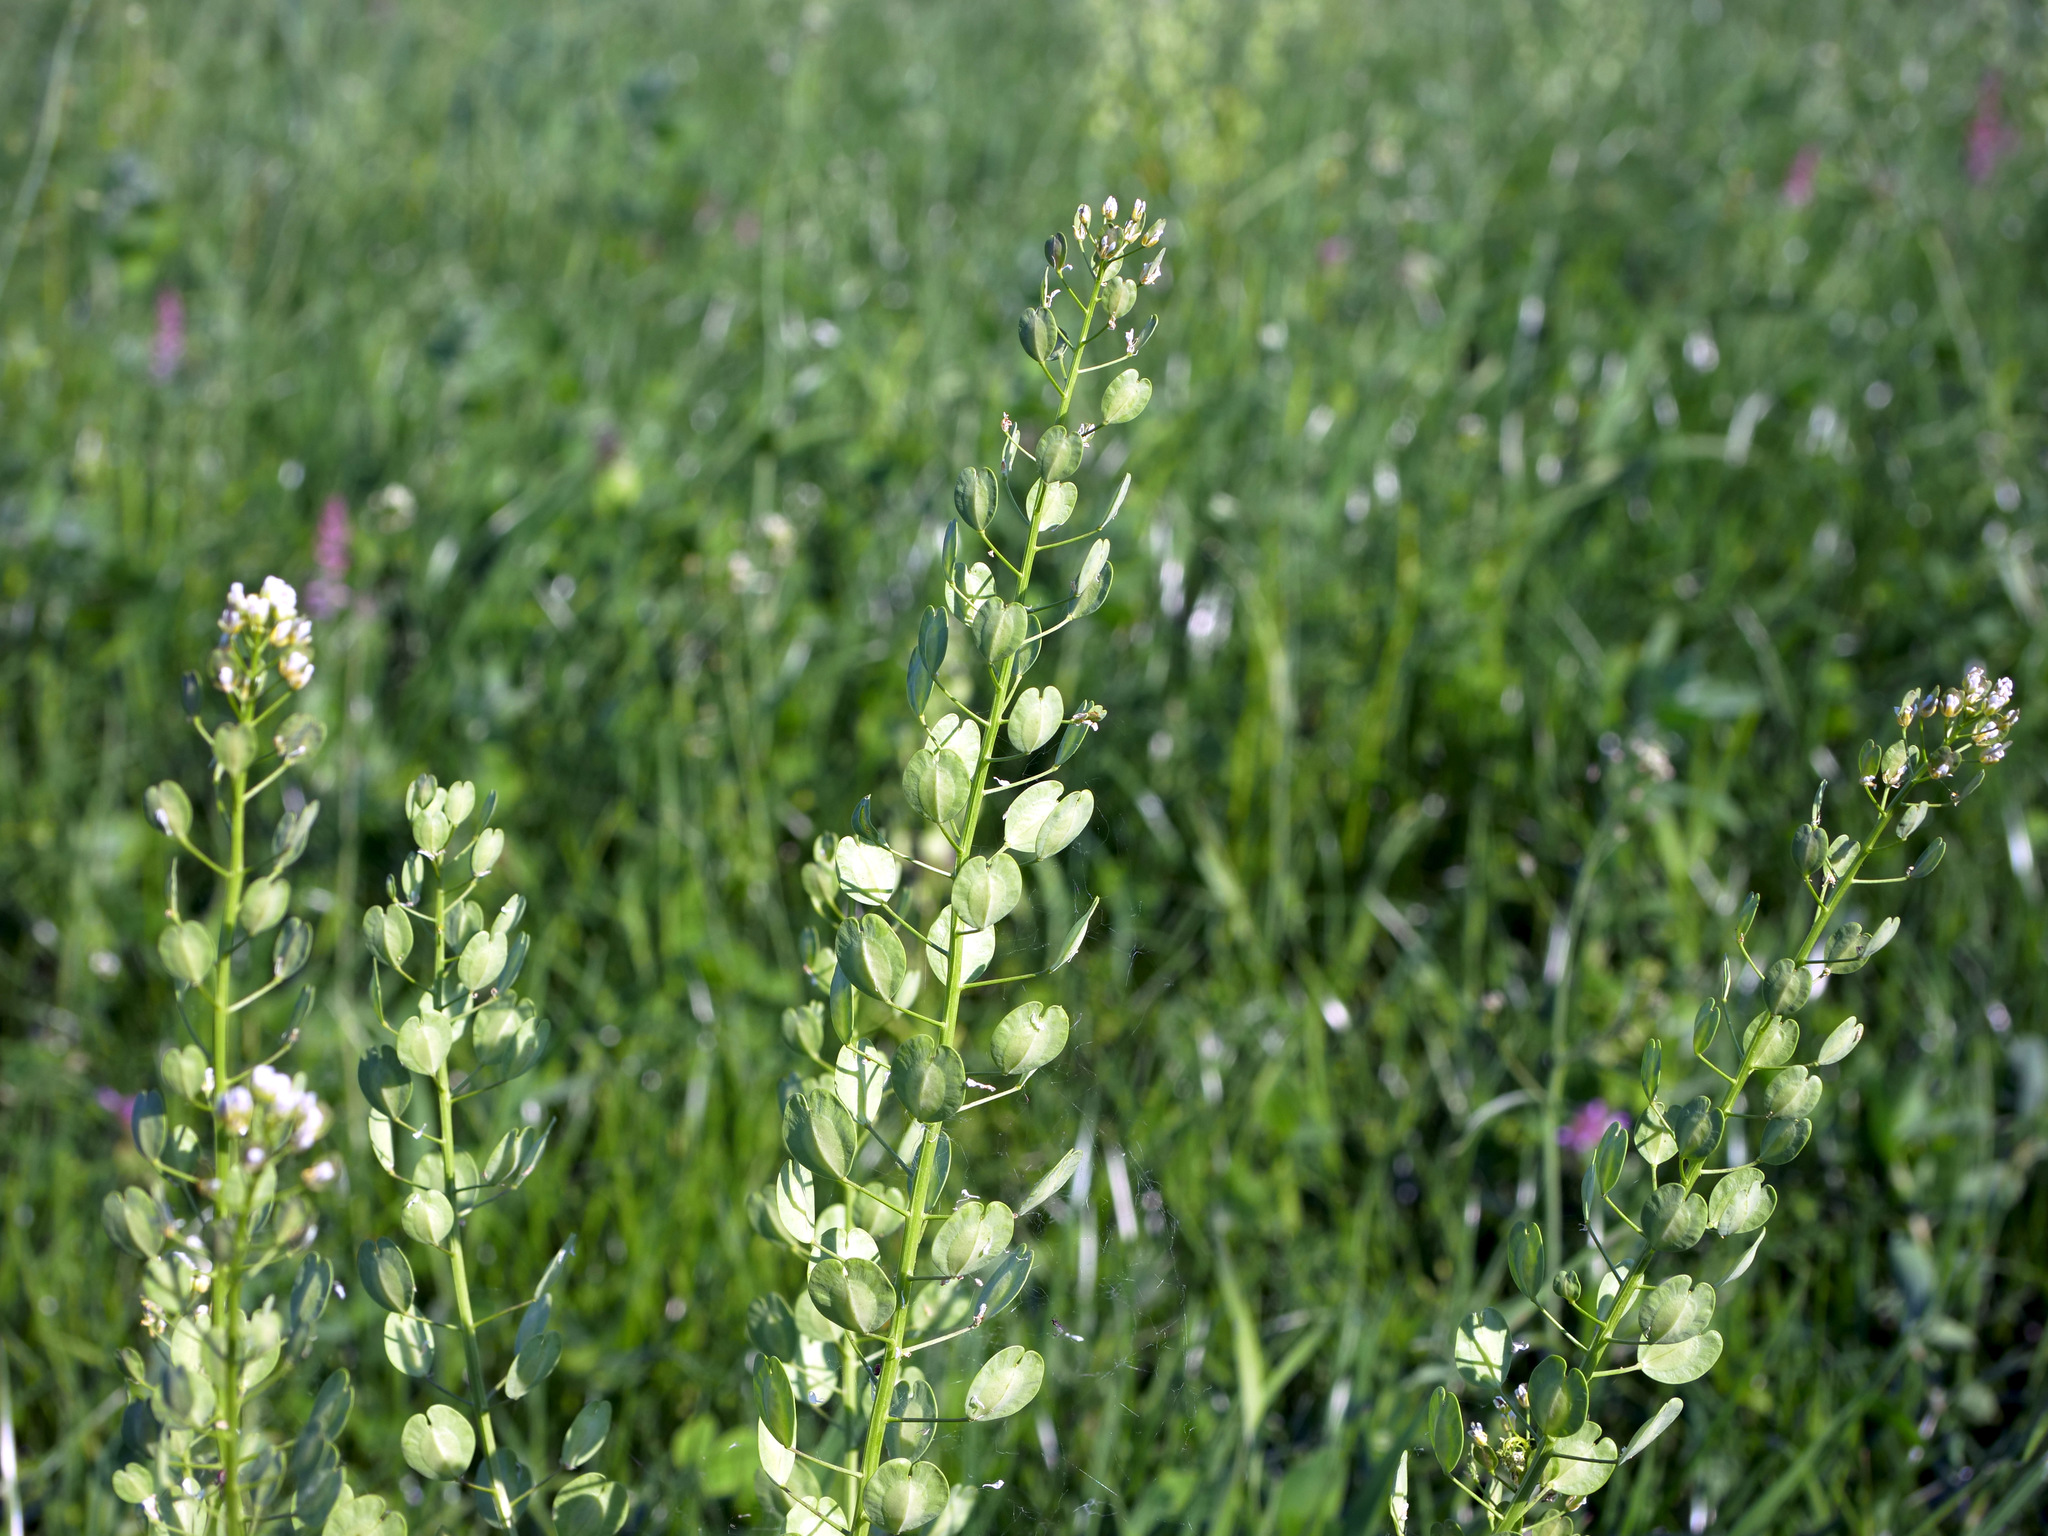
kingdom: Plantae
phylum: Tracheophyta
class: Magnoliopsida
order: Brassicales
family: Brassicaceae
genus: Thlaspi
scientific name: Thlaspi arvense
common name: Field pennycress
